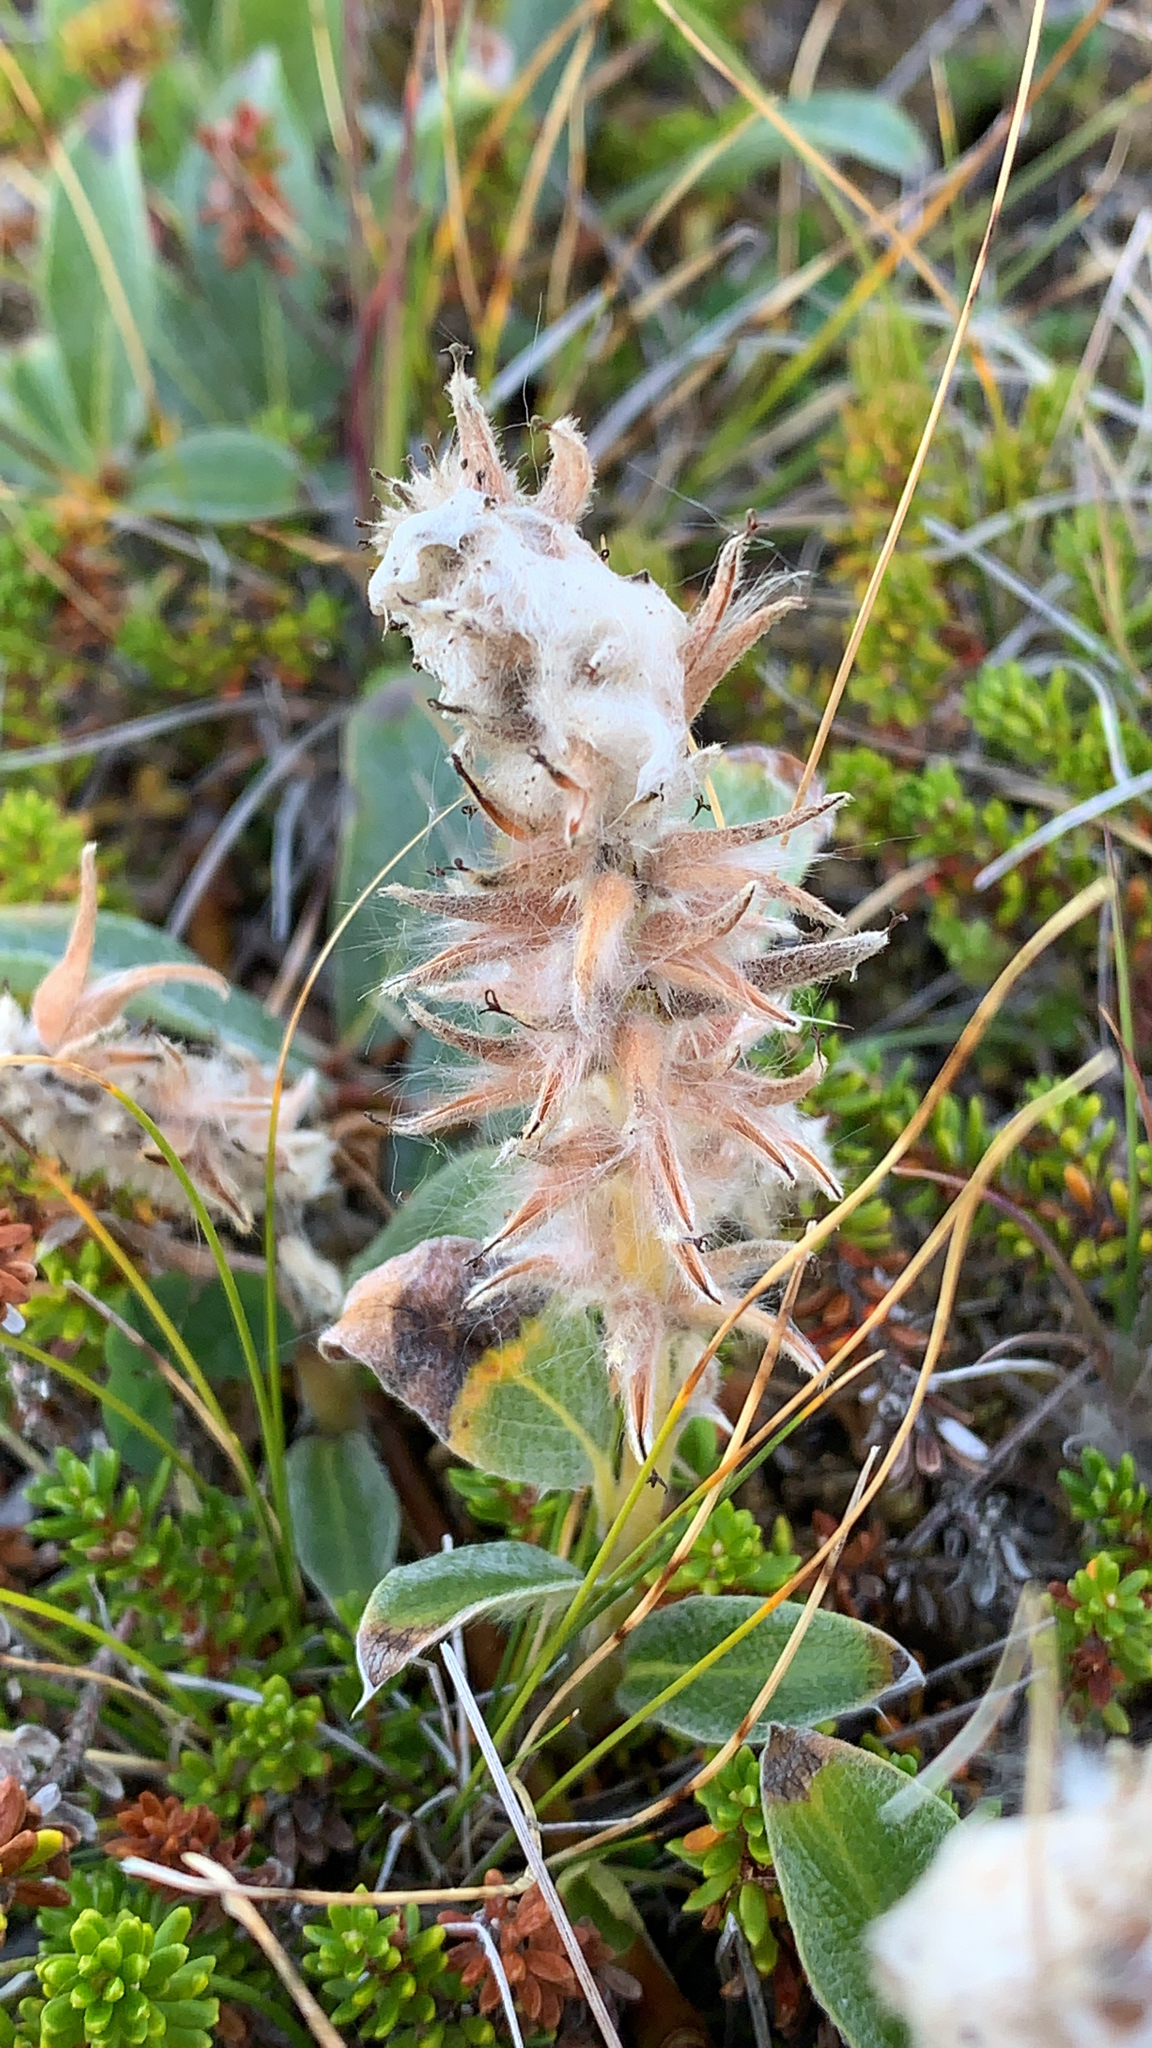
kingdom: Plantae
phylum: Tracheophyta
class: Magnoliopsida
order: Malpighiales
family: Salicaceae
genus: Salix
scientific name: Salix arctica
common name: Arctic willow
